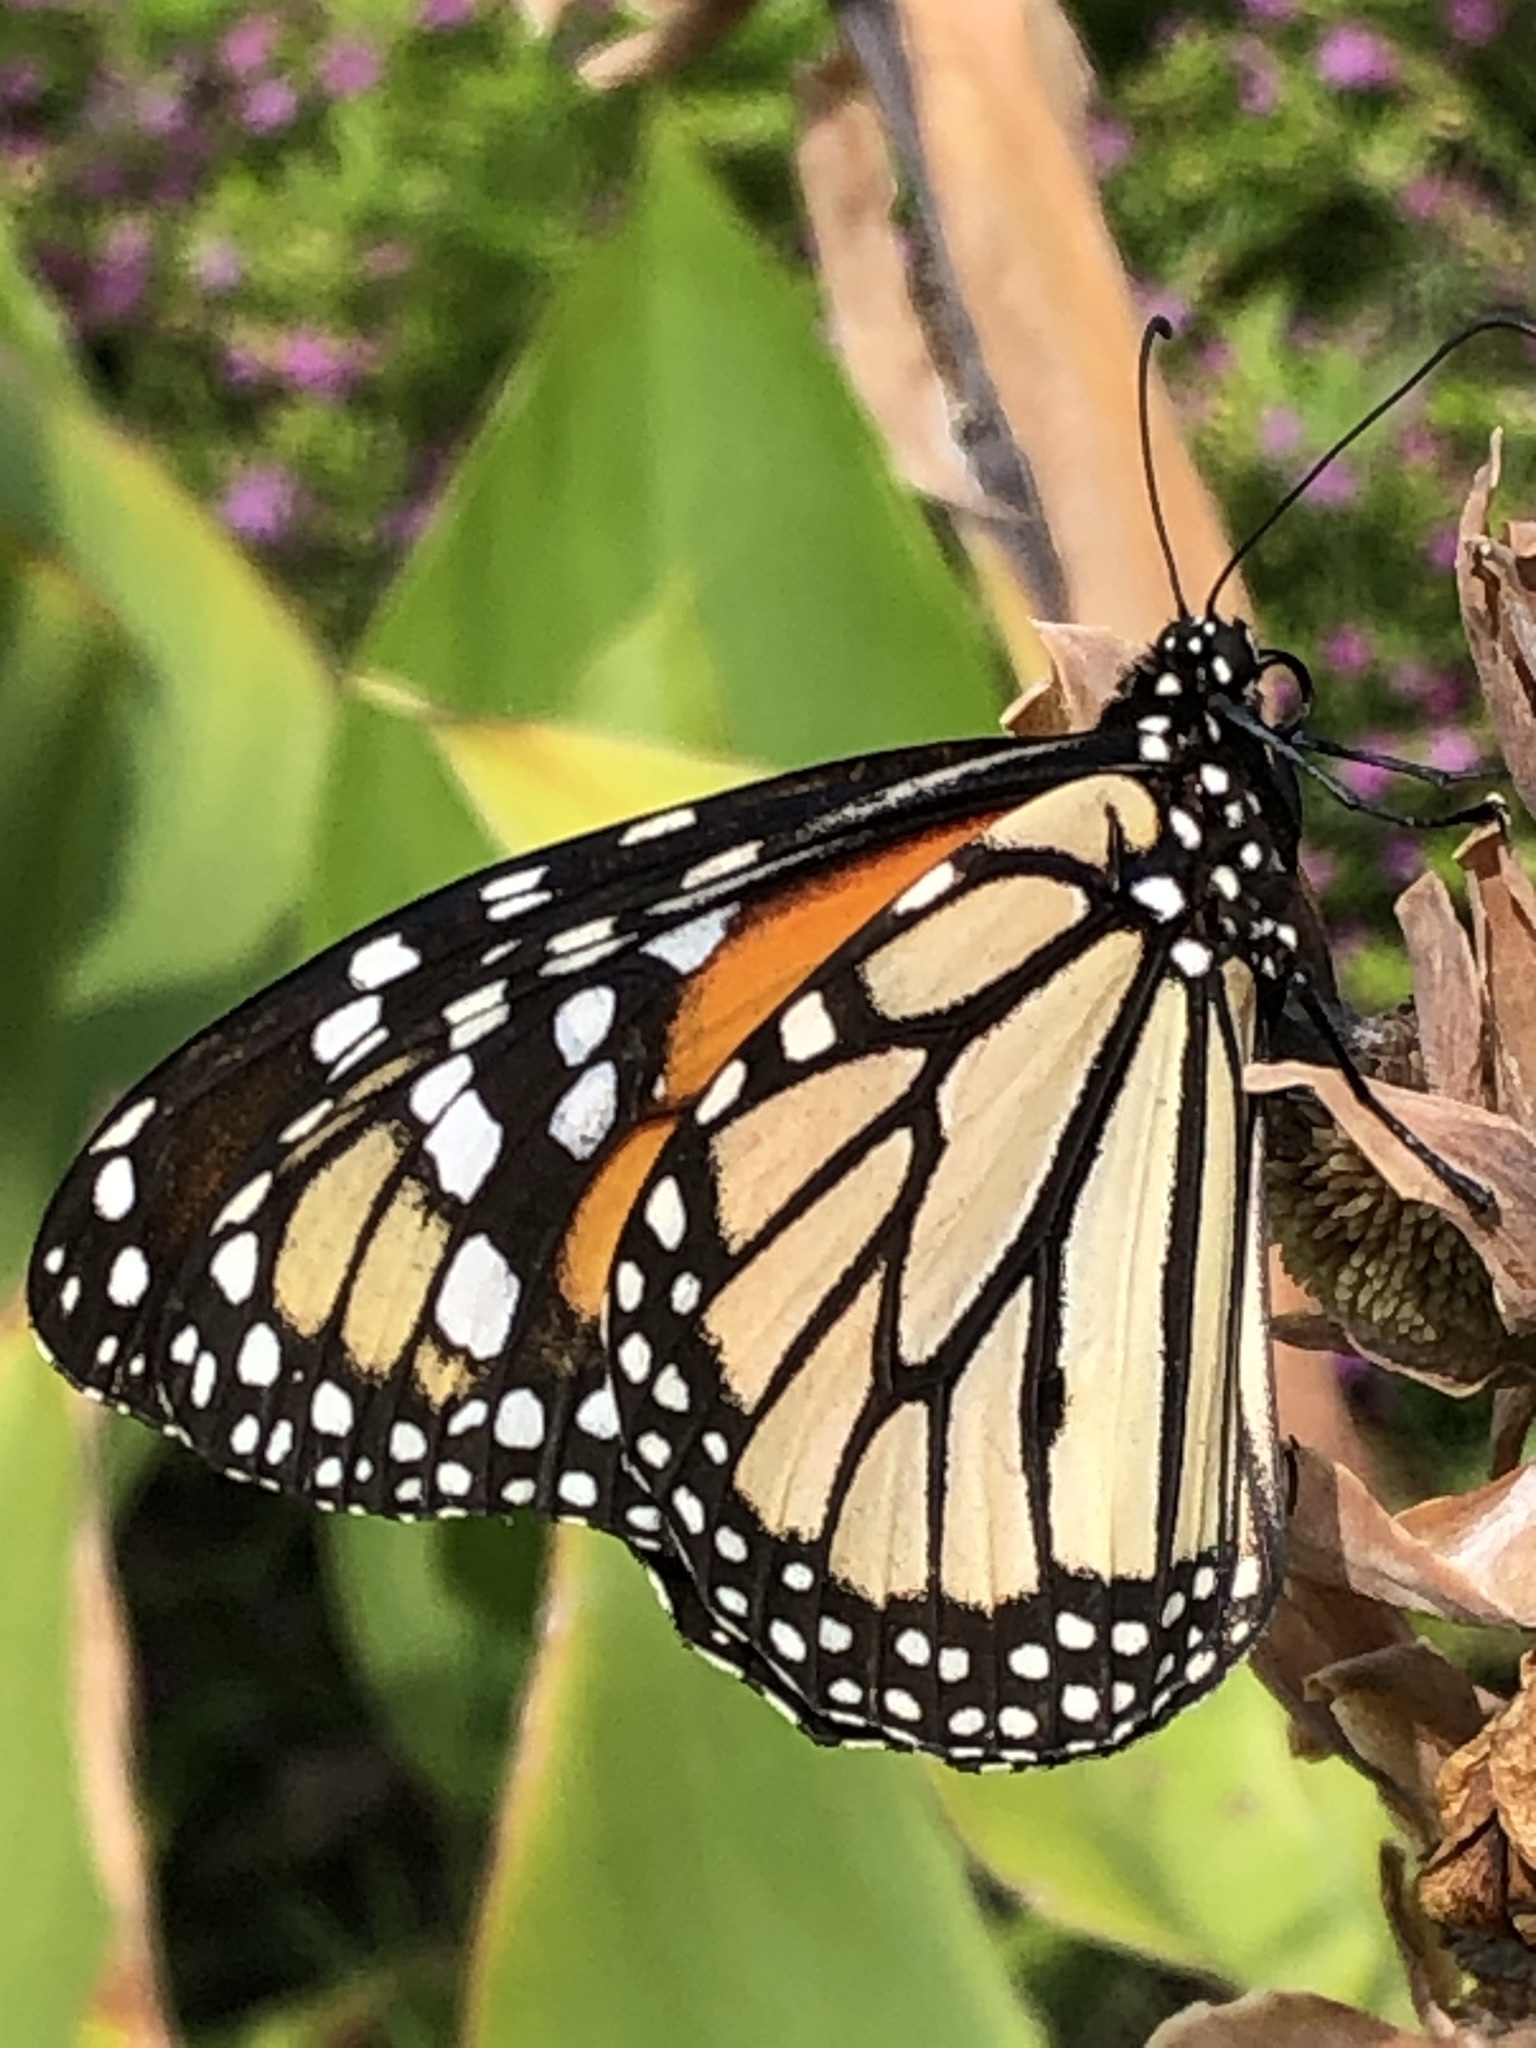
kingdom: Animalia
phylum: Arthropoda
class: Insecta
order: Lepidoptera
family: Nymphalidae
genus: Danaus
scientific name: Danaus plexippus
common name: Monarch
